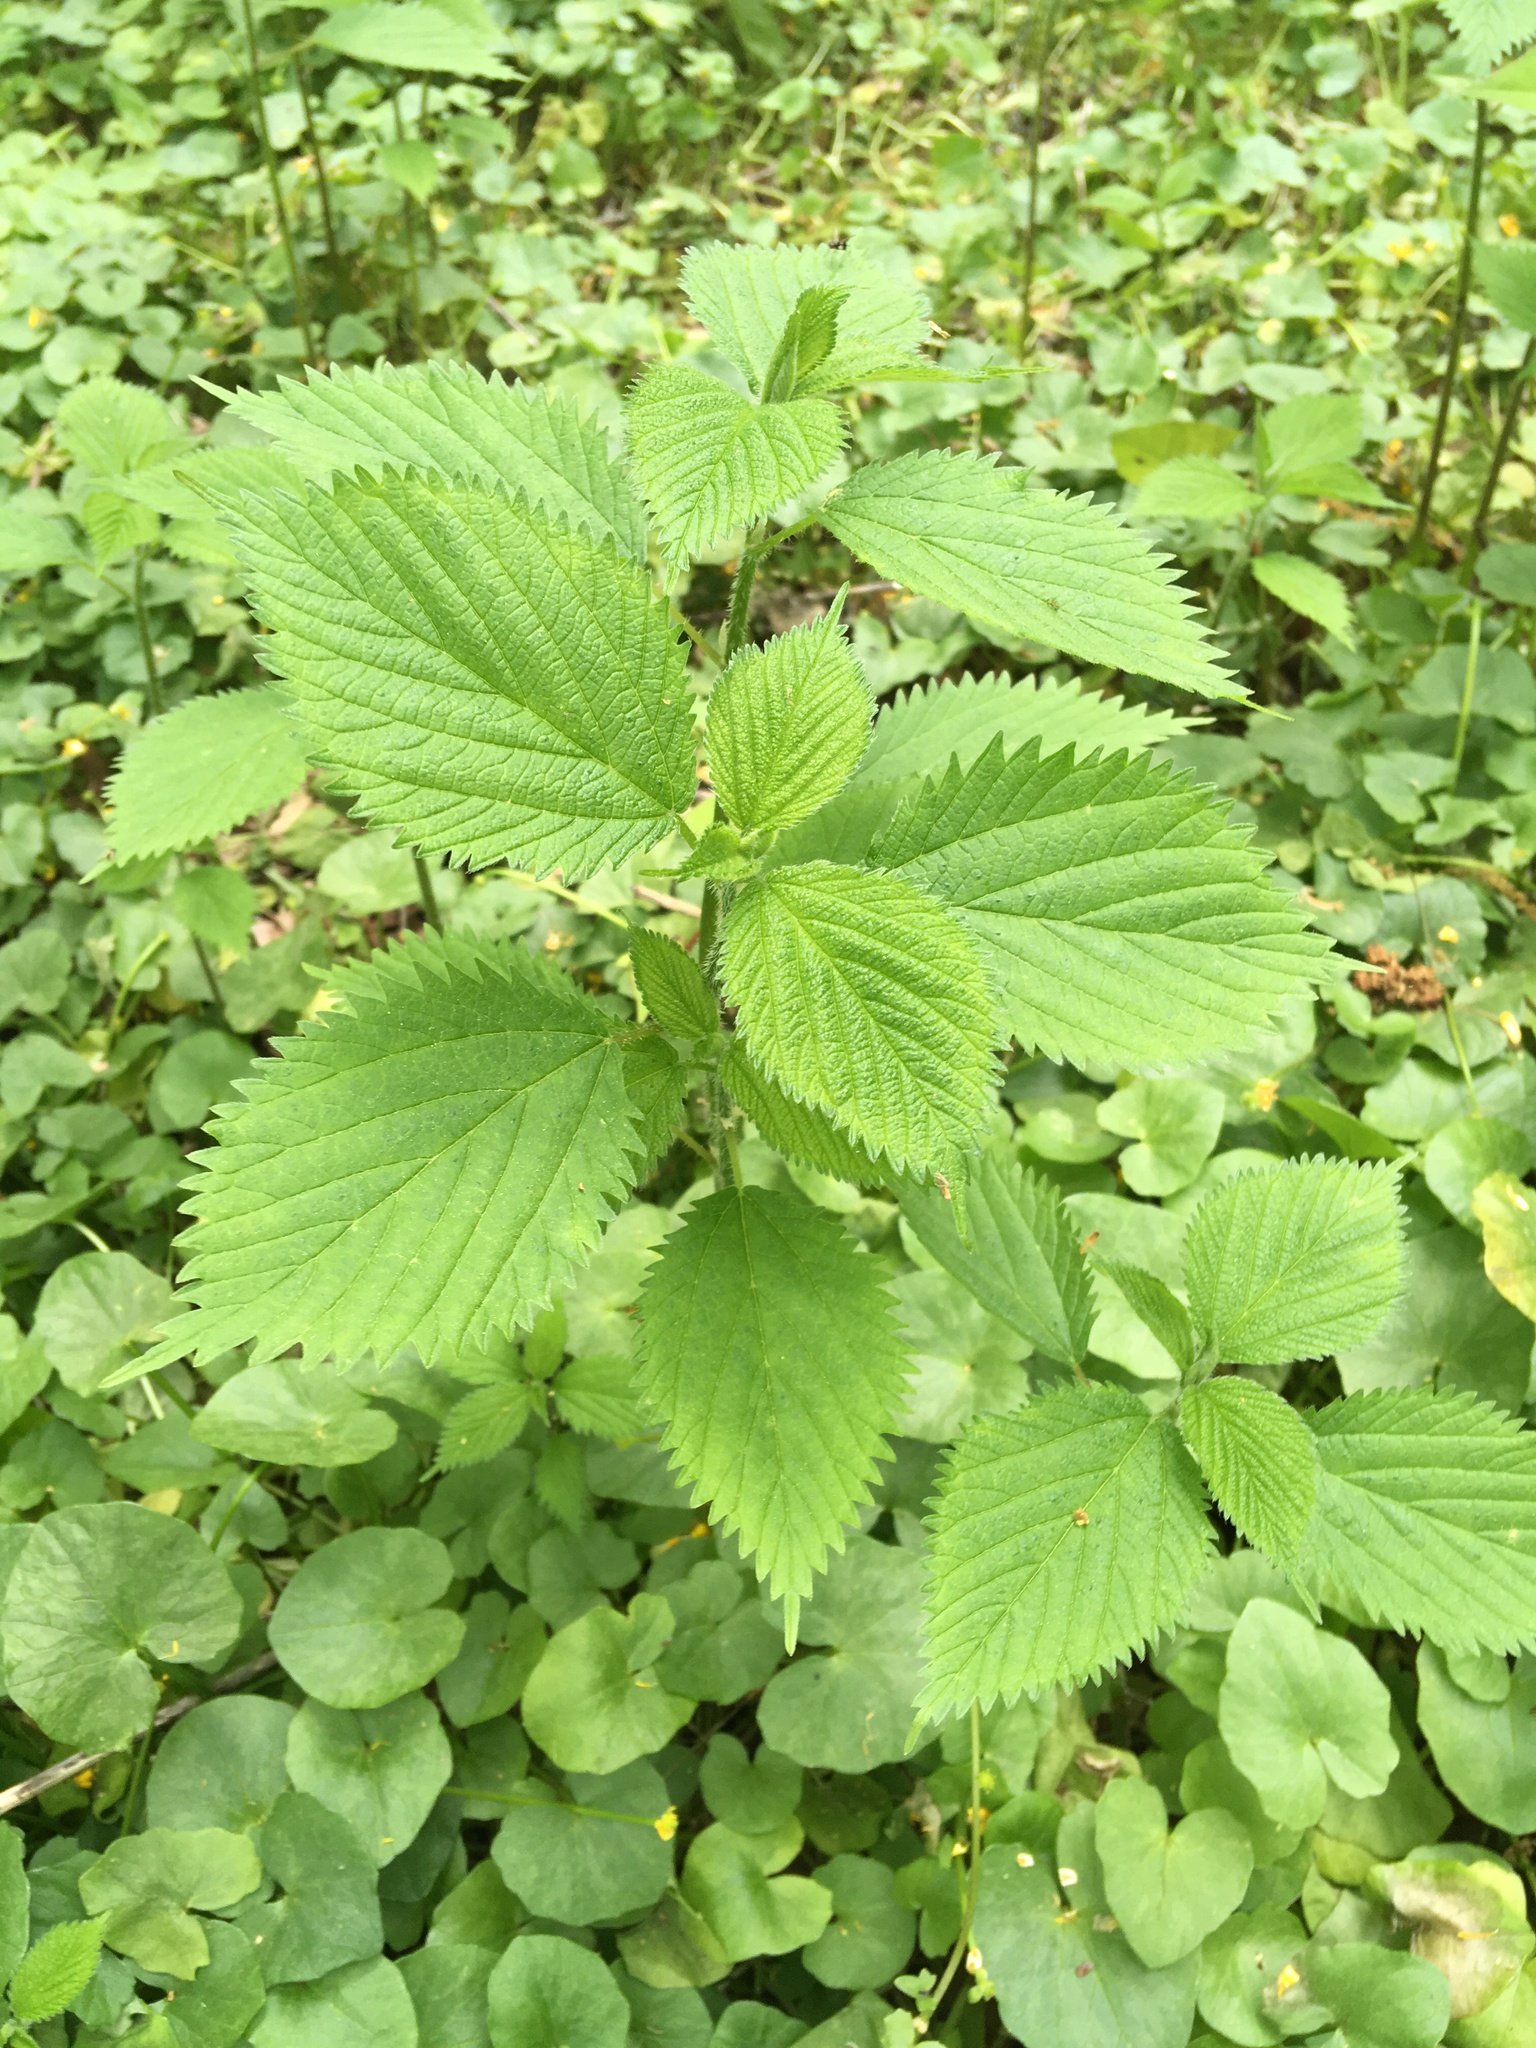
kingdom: Plantae
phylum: Tracheophyta
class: Magnoliopsida
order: Rosales
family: Urticaceae
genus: Laportea
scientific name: Laportea canadensis
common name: Canada nettle
